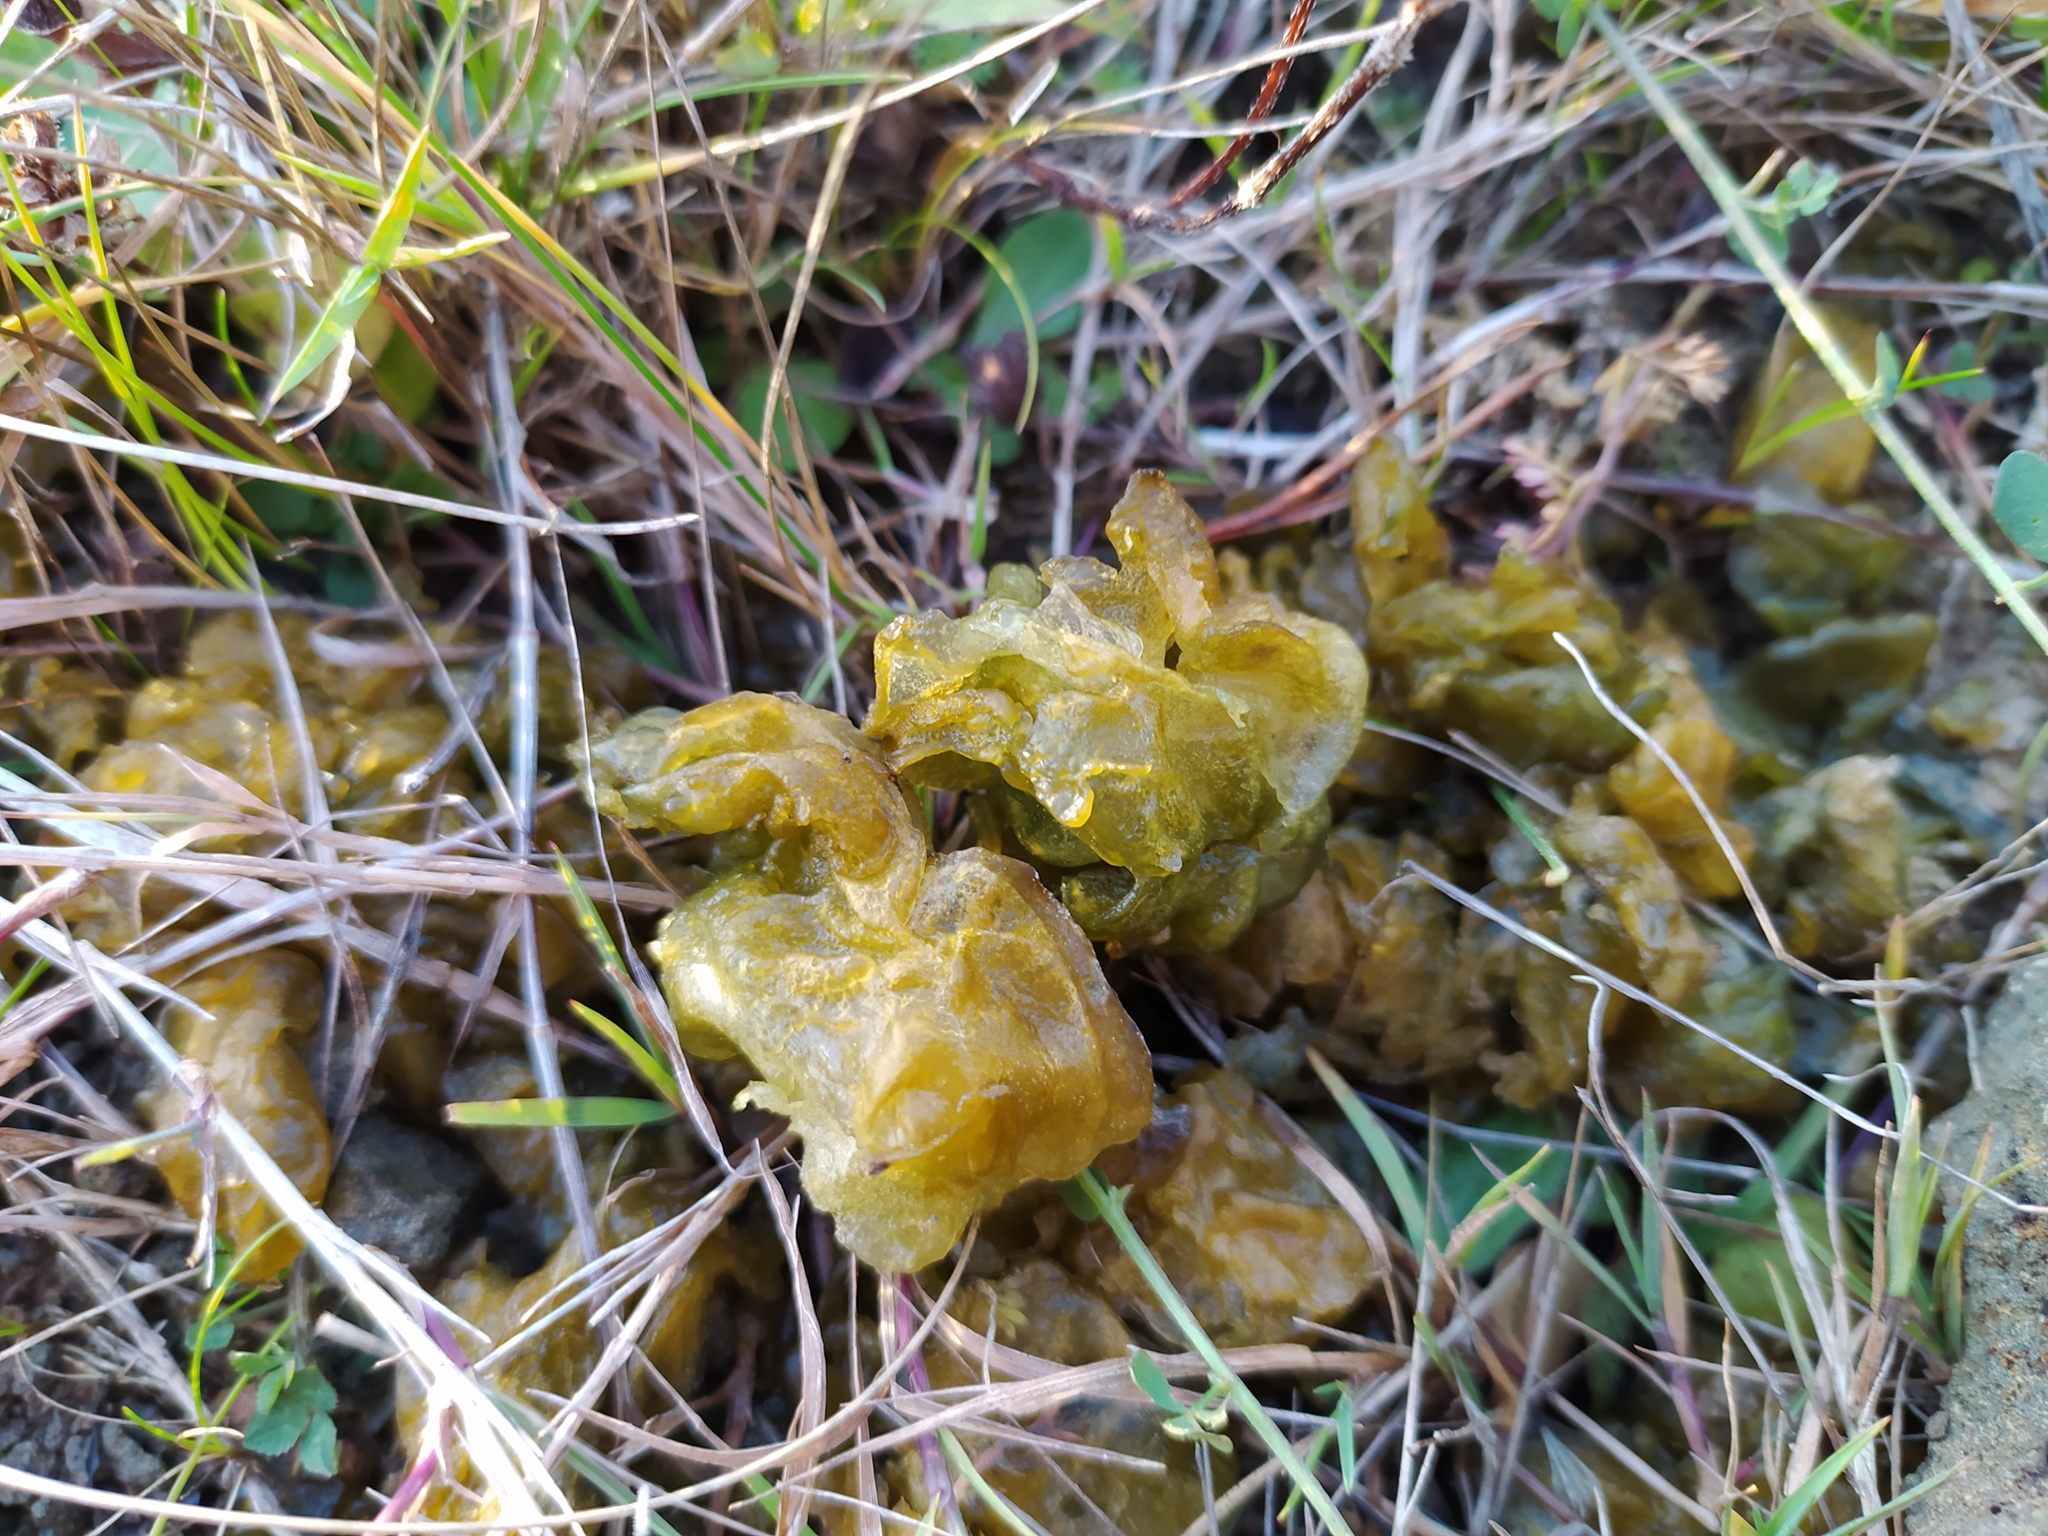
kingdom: Bacteria
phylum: Cyanobacteria
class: Cyanobacteriia
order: Cyanobacteriales
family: Nostocaceae
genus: Nostoc
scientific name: Nostoc commune
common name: Star jelly
